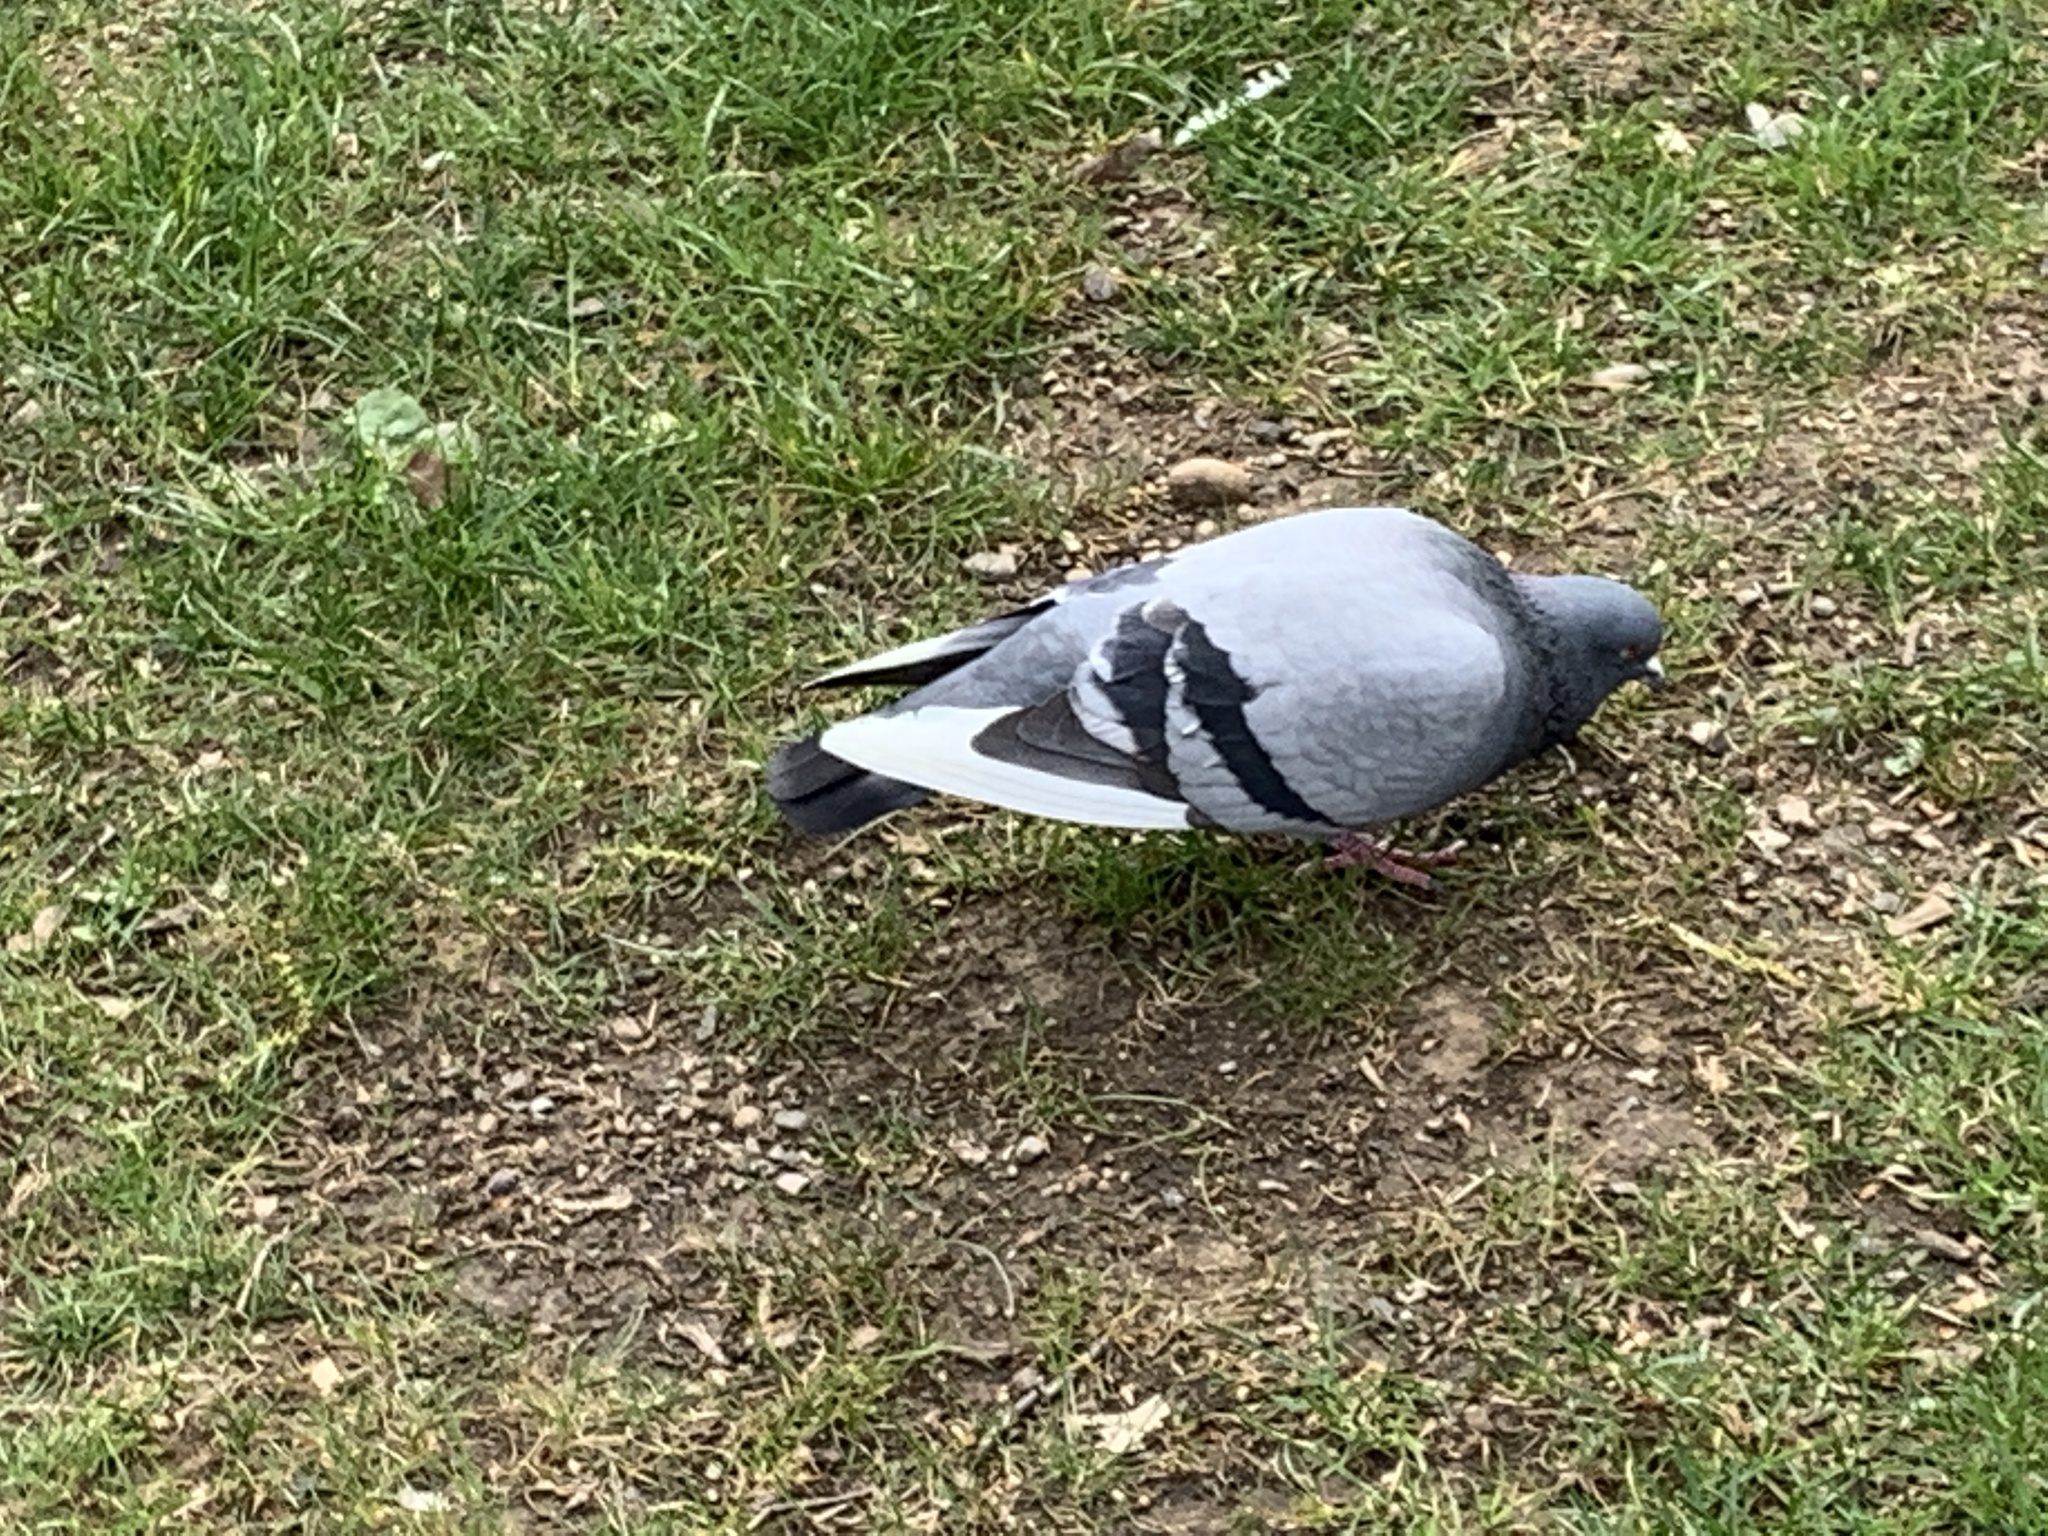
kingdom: Animalia
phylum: Chordata
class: Aves
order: Columbiformes
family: Columbidae
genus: Columba
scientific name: Columba livia
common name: Rock pigeon
